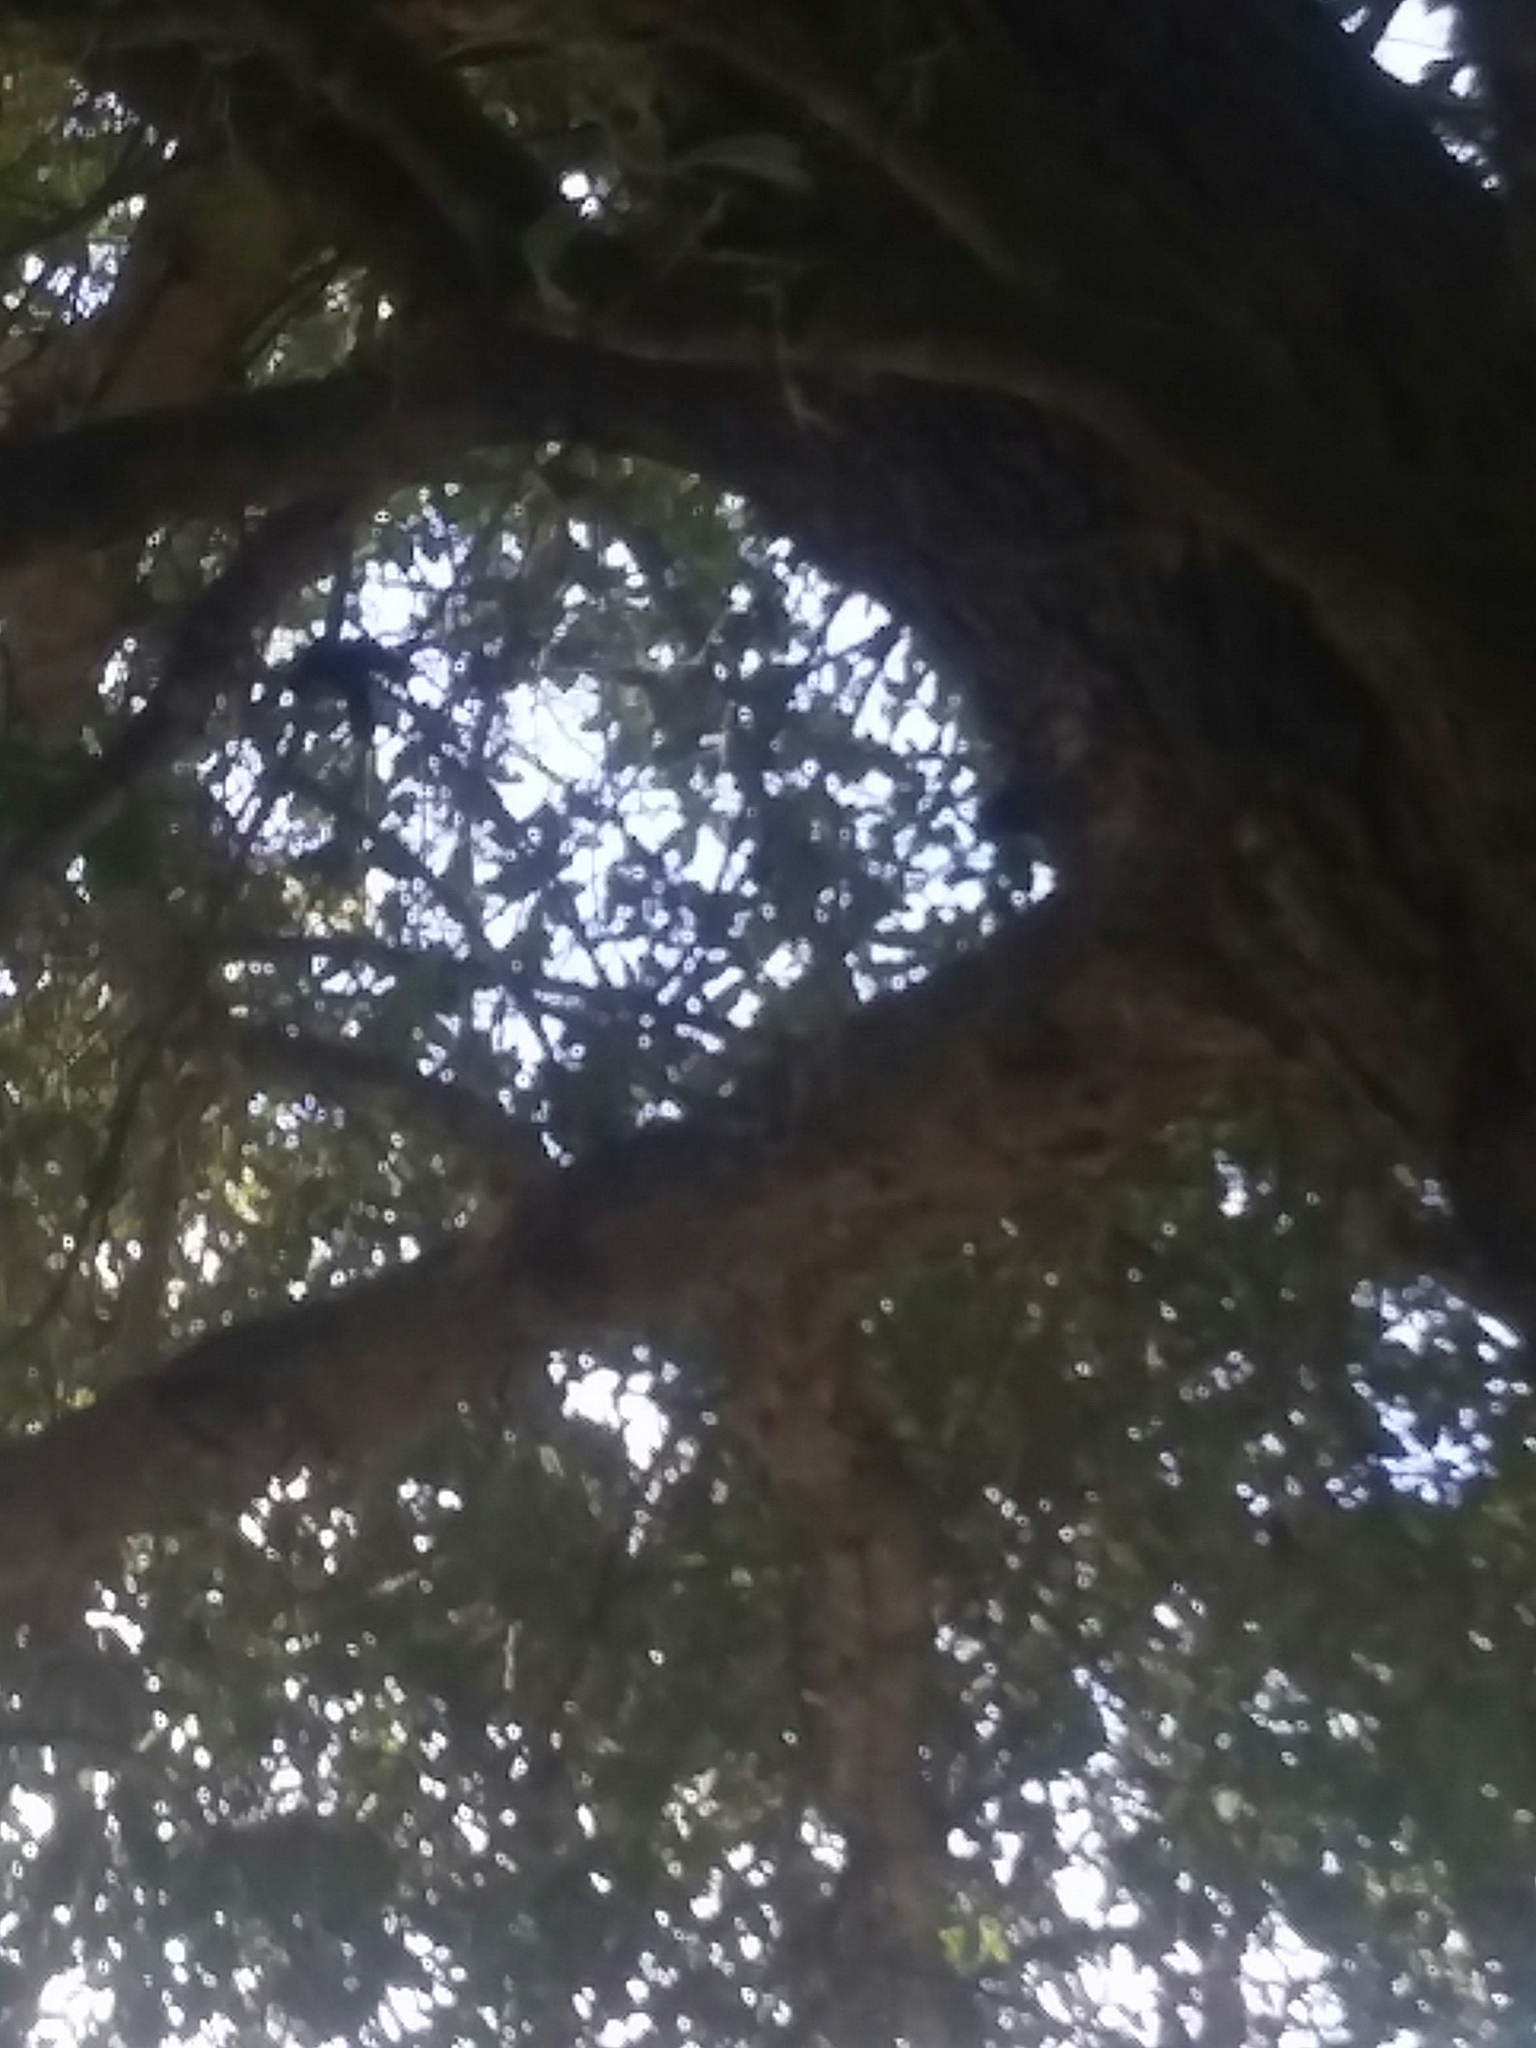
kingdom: Animalia
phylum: Arthropoda
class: Arachnida
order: Araneae
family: Araneidae
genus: Trichonephila
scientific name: Trichonephila clavipes
